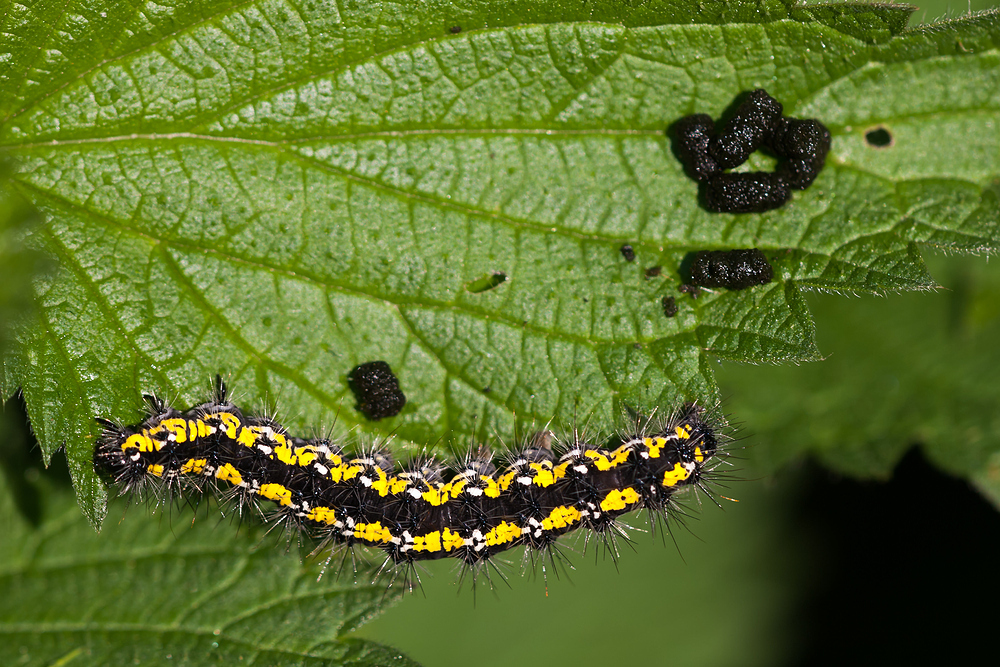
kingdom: Animalia
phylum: Arthropoda
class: Insecta
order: Lepidoptera
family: Erebidae
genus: Callimorpha
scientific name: Callimorpha dominula
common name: Scarlet tiger
